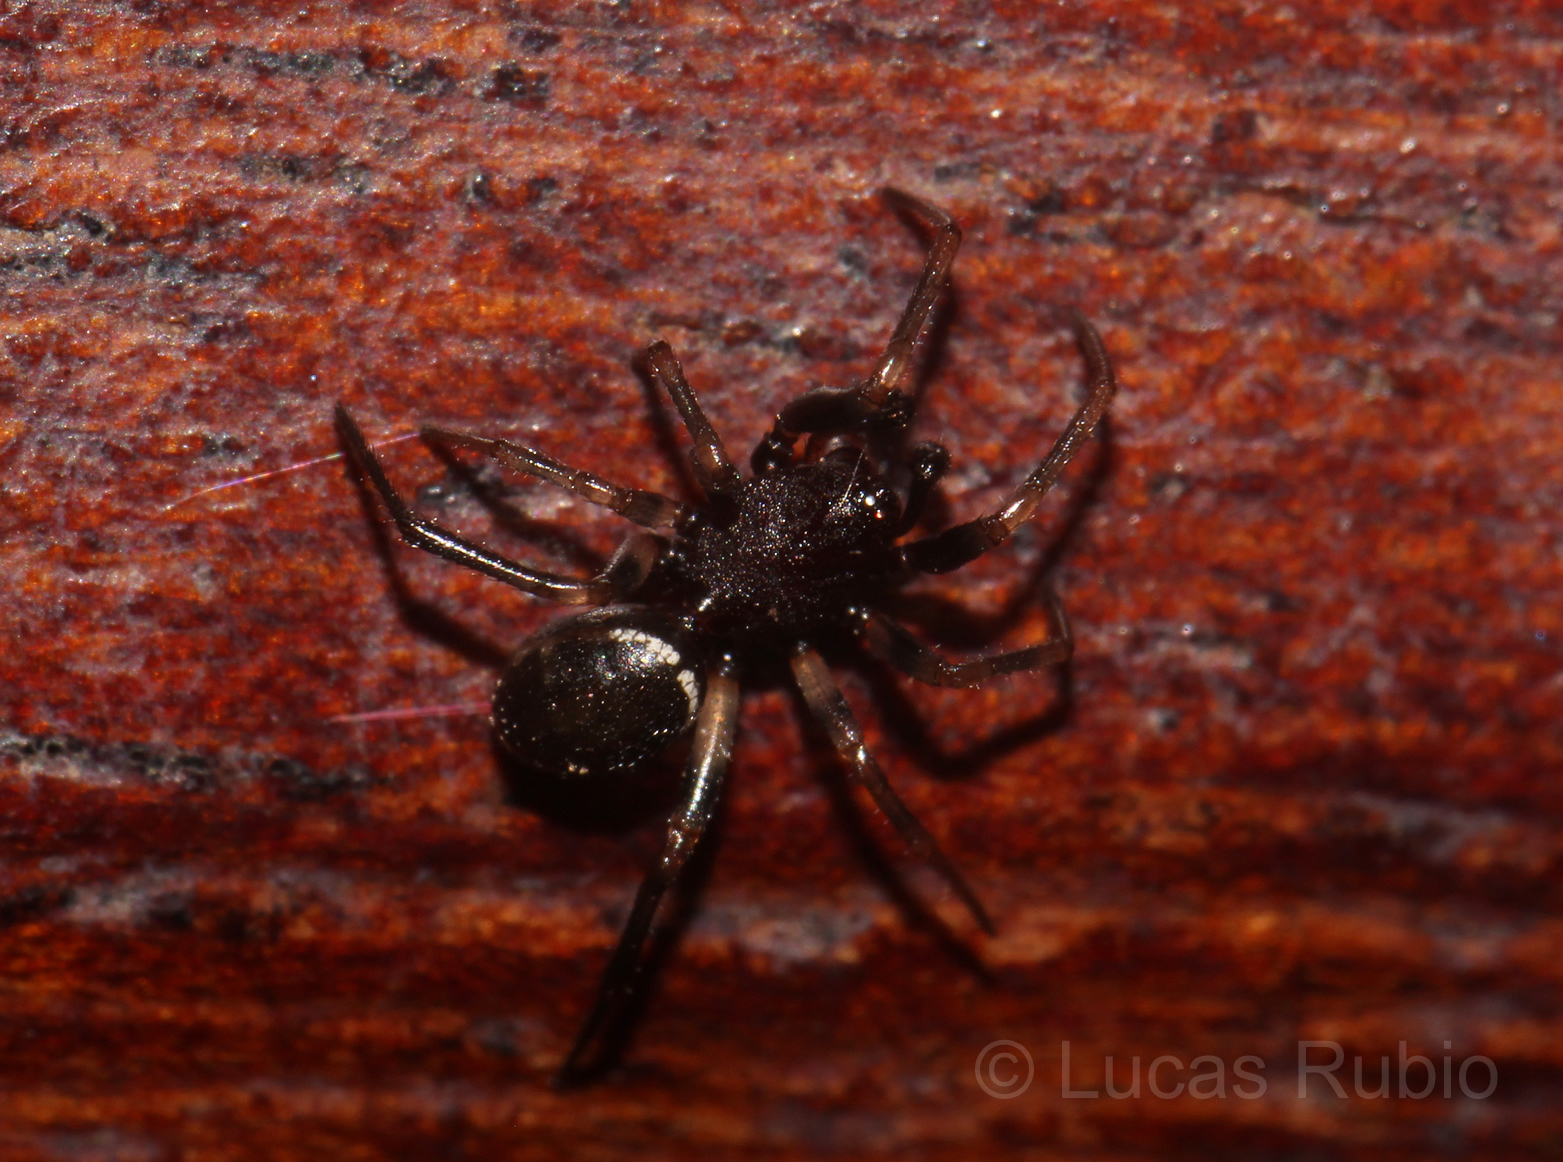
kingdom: Animalia
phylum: Arthropoda
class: Arachnida
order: Araneae
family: Theridiidae
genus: Steatoda
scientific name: Steatoda ancorata
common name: Cobweb spiders
